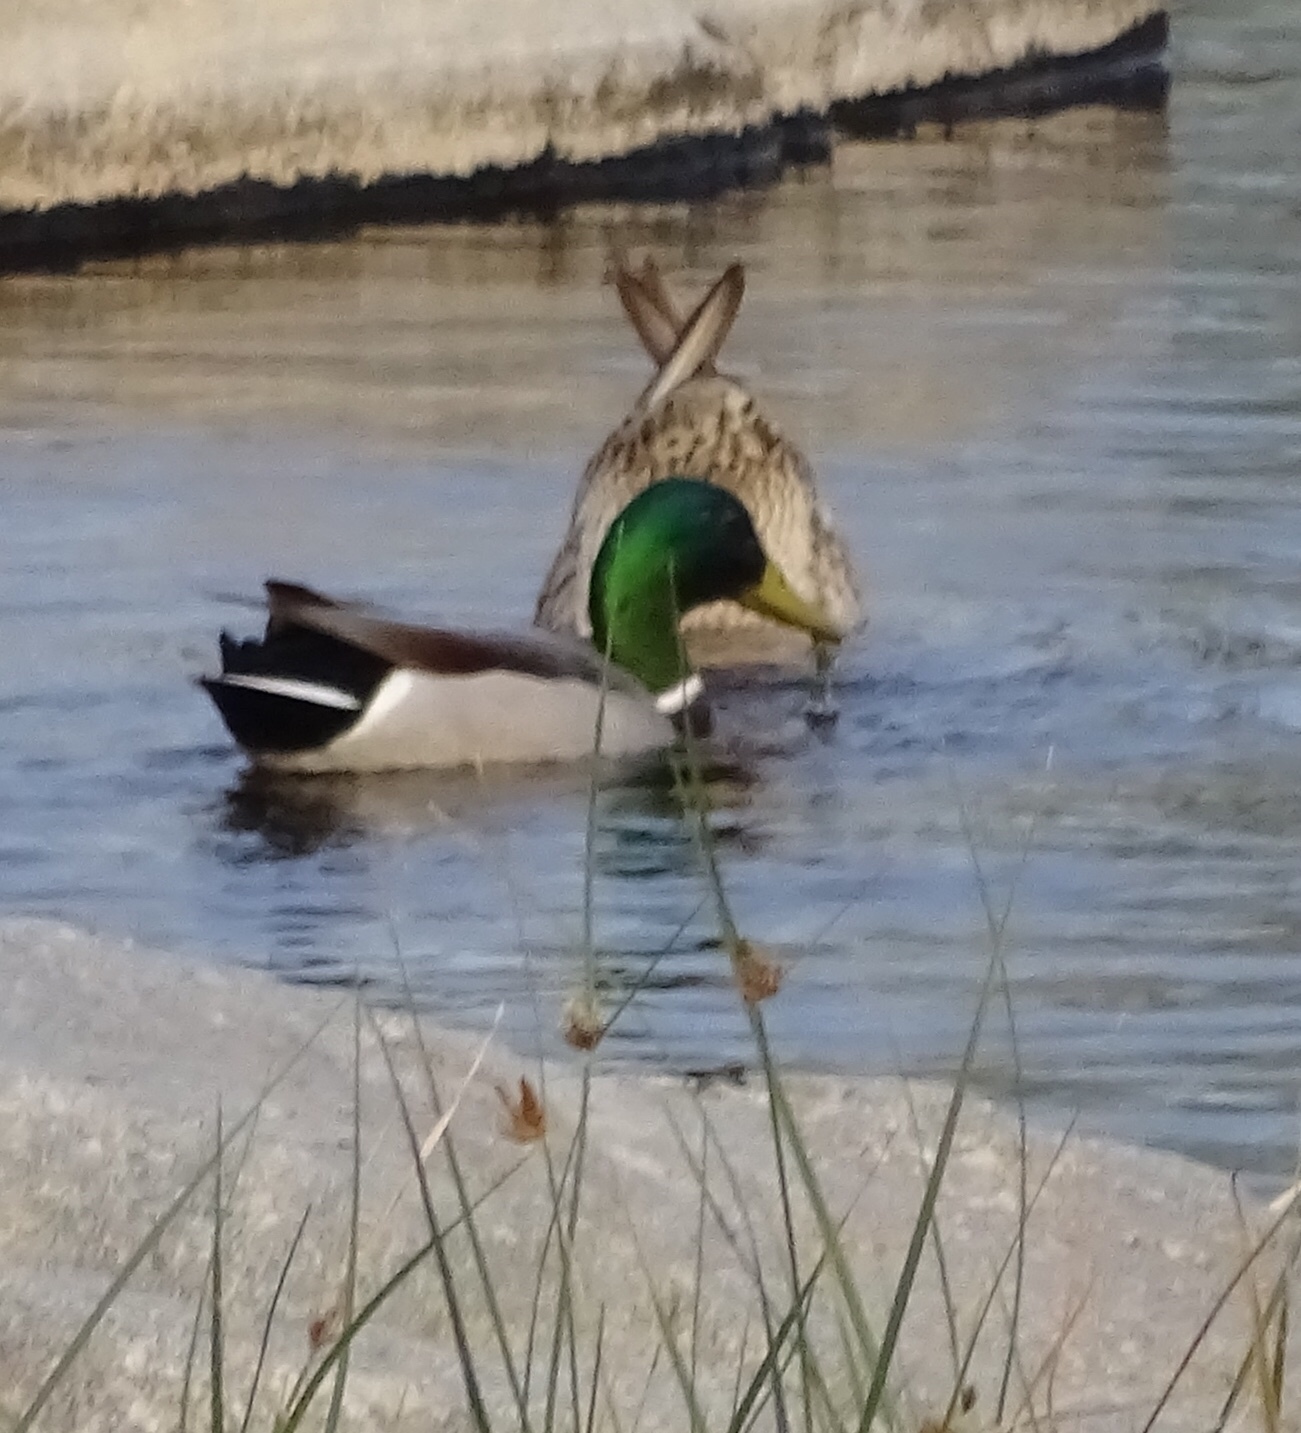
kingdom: Animalia
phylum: Chordata
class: Aves
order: Anseriformes
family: Anatidae
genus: Anas
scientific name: Anas platyrhynchos
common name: Mallard
